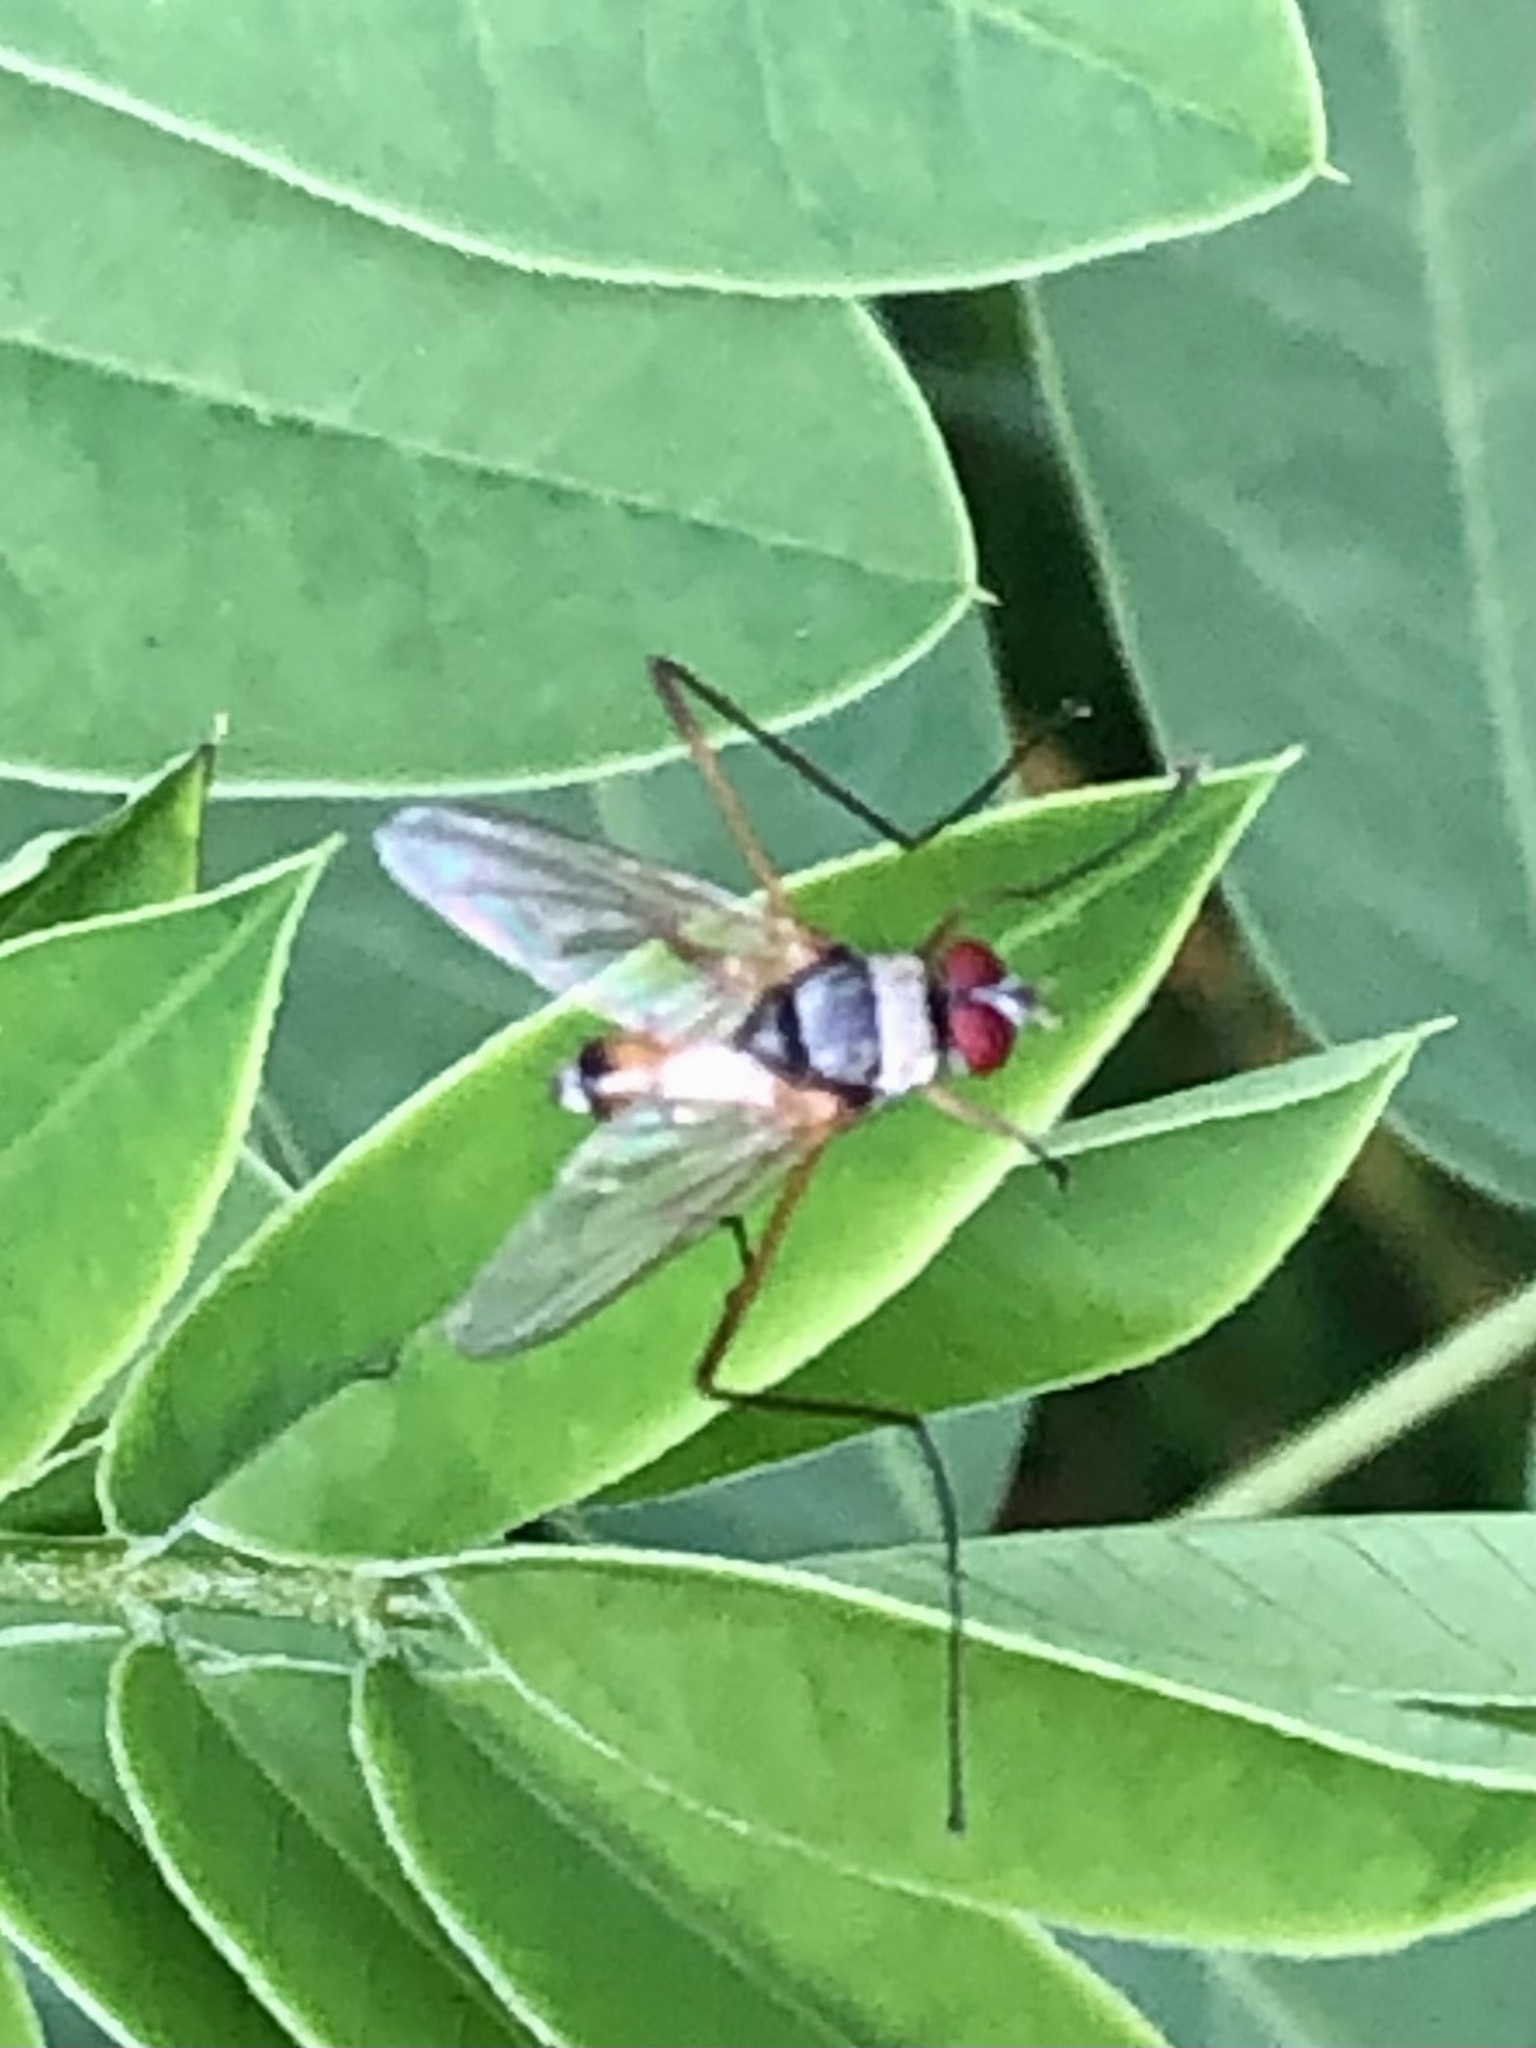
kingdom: Animalia
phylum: Arthropoda
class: Insecta
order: Diptera
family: Tachinidae
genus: Cholomyia
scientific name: Cholomyia inaequipes
